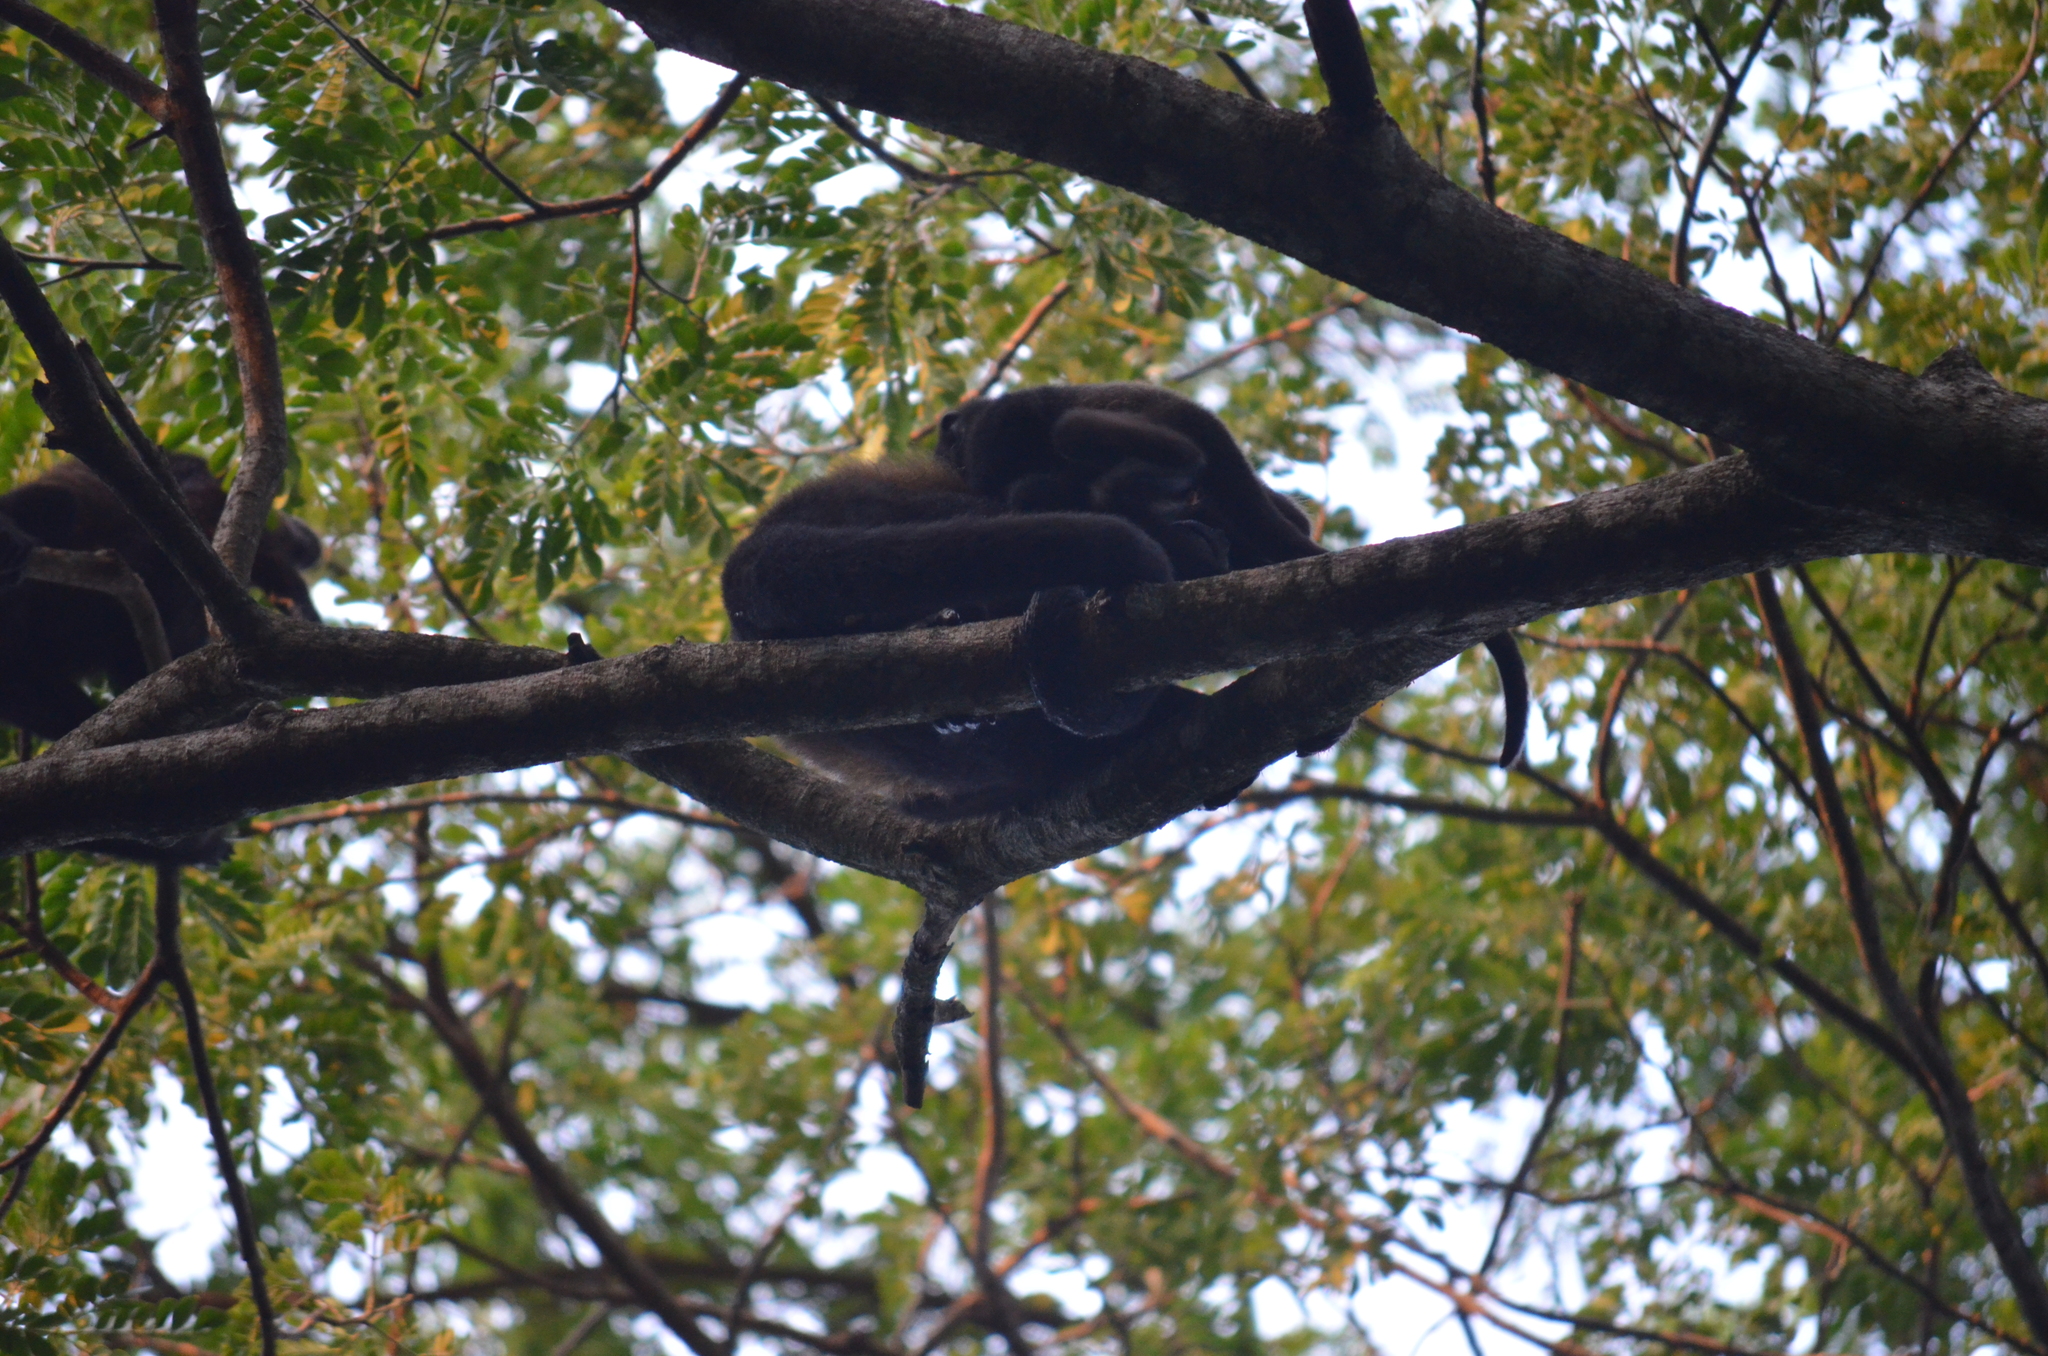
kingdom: Animalia
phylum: Chordata
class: Mammalia
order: Primates
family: Atelidae
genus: Alouatta
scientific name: Alouatta palliata
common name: Mantled howler
